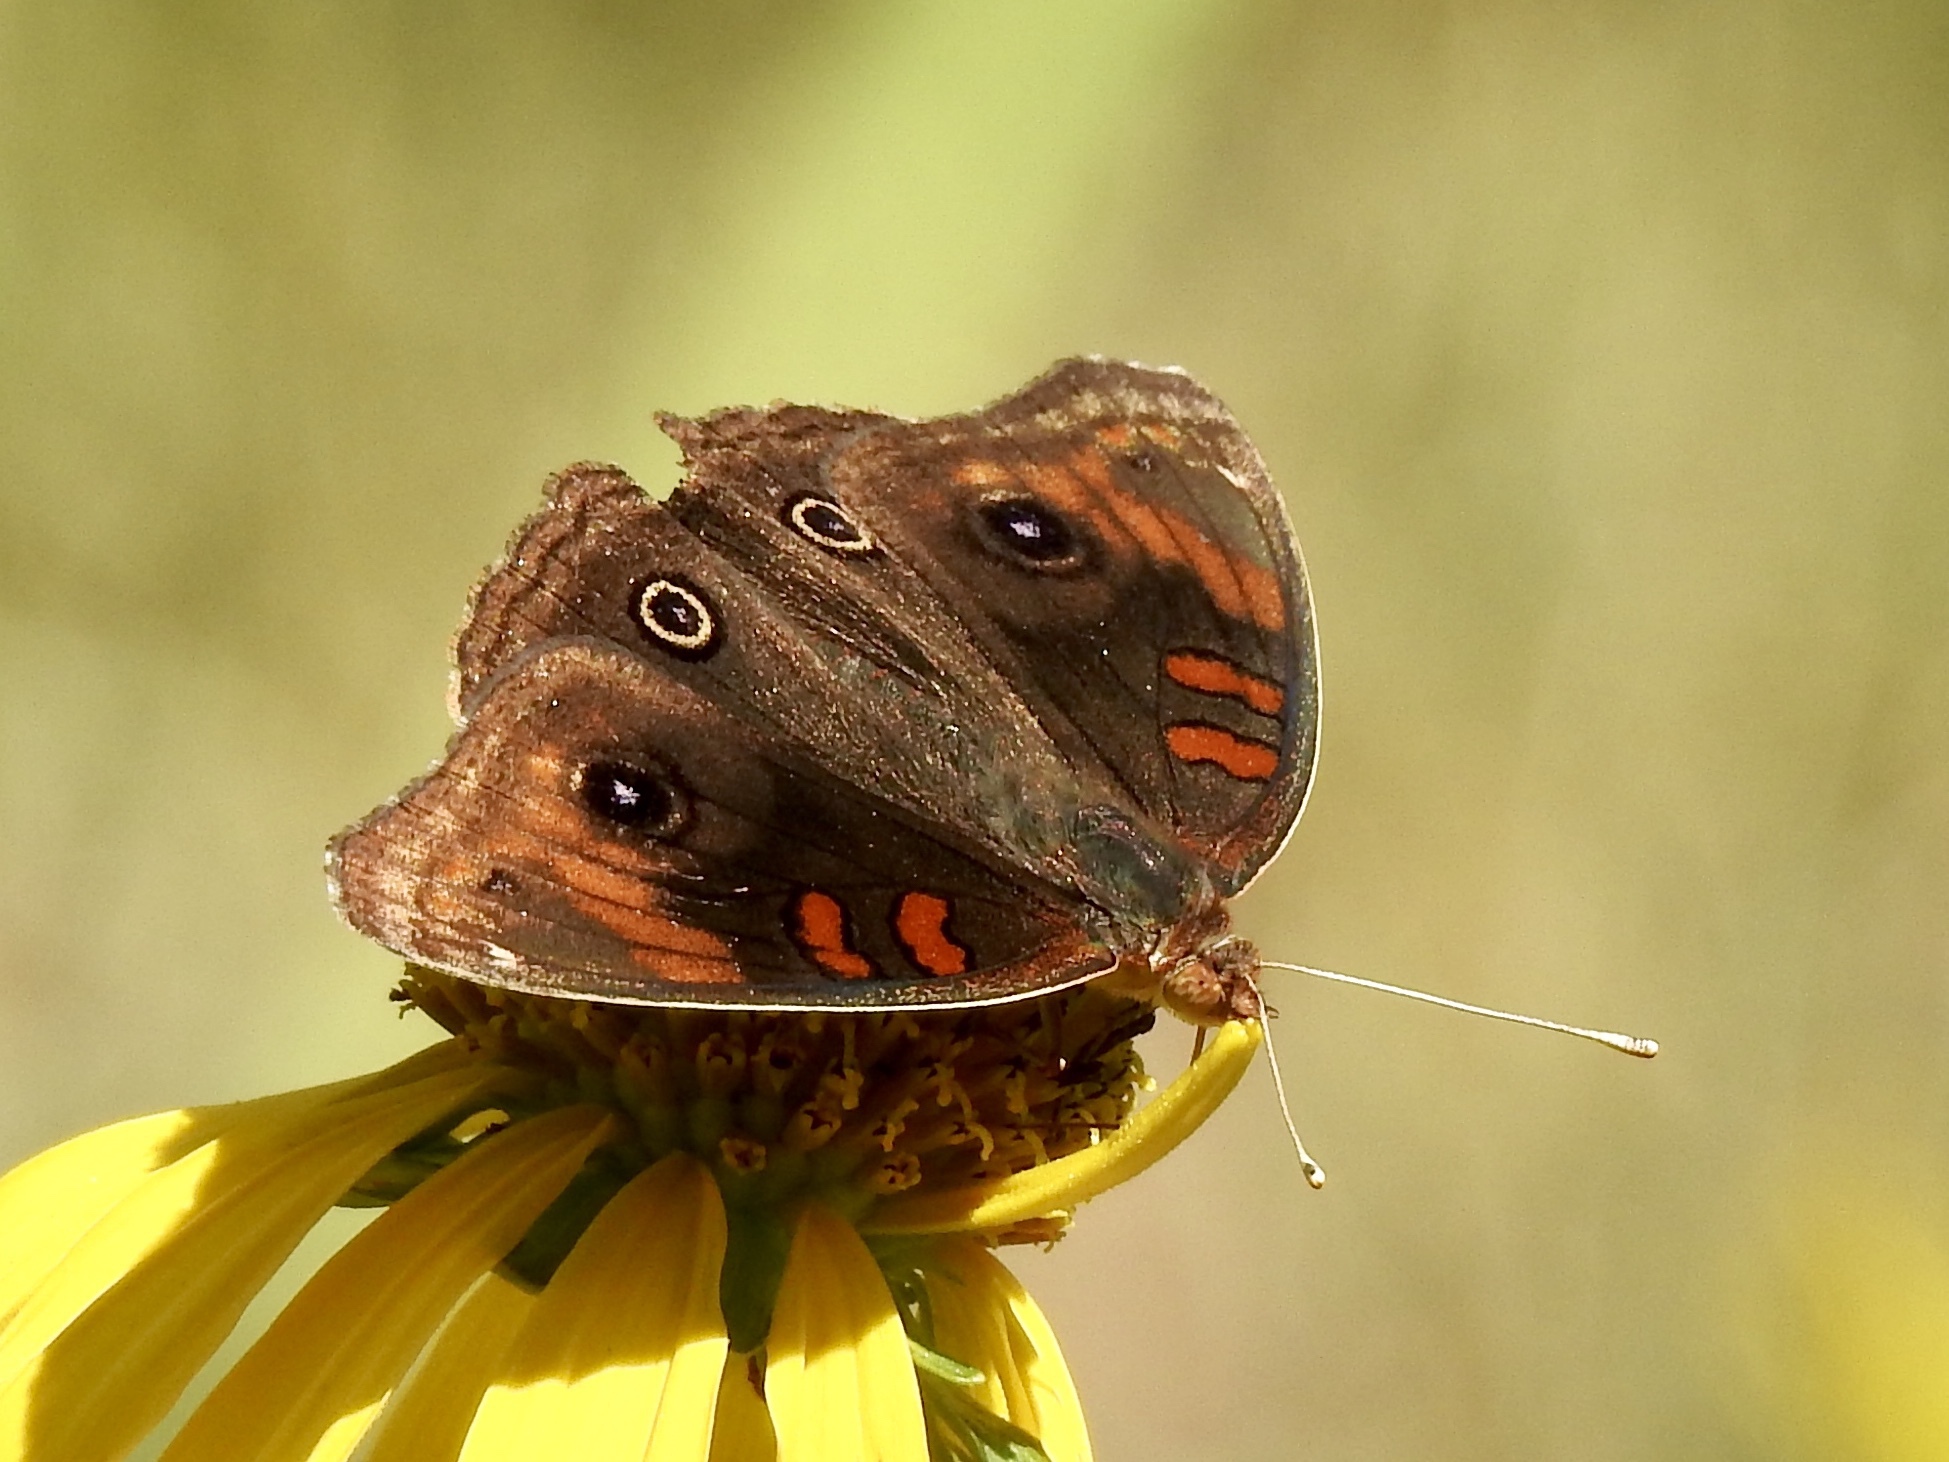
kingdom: Animalia
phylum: Arthropoda
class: Insecta
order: Lepidoptera
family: Nymphalidae
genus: Junonia
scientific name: Junonia nigrosuffusa
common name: Dark buckeye
